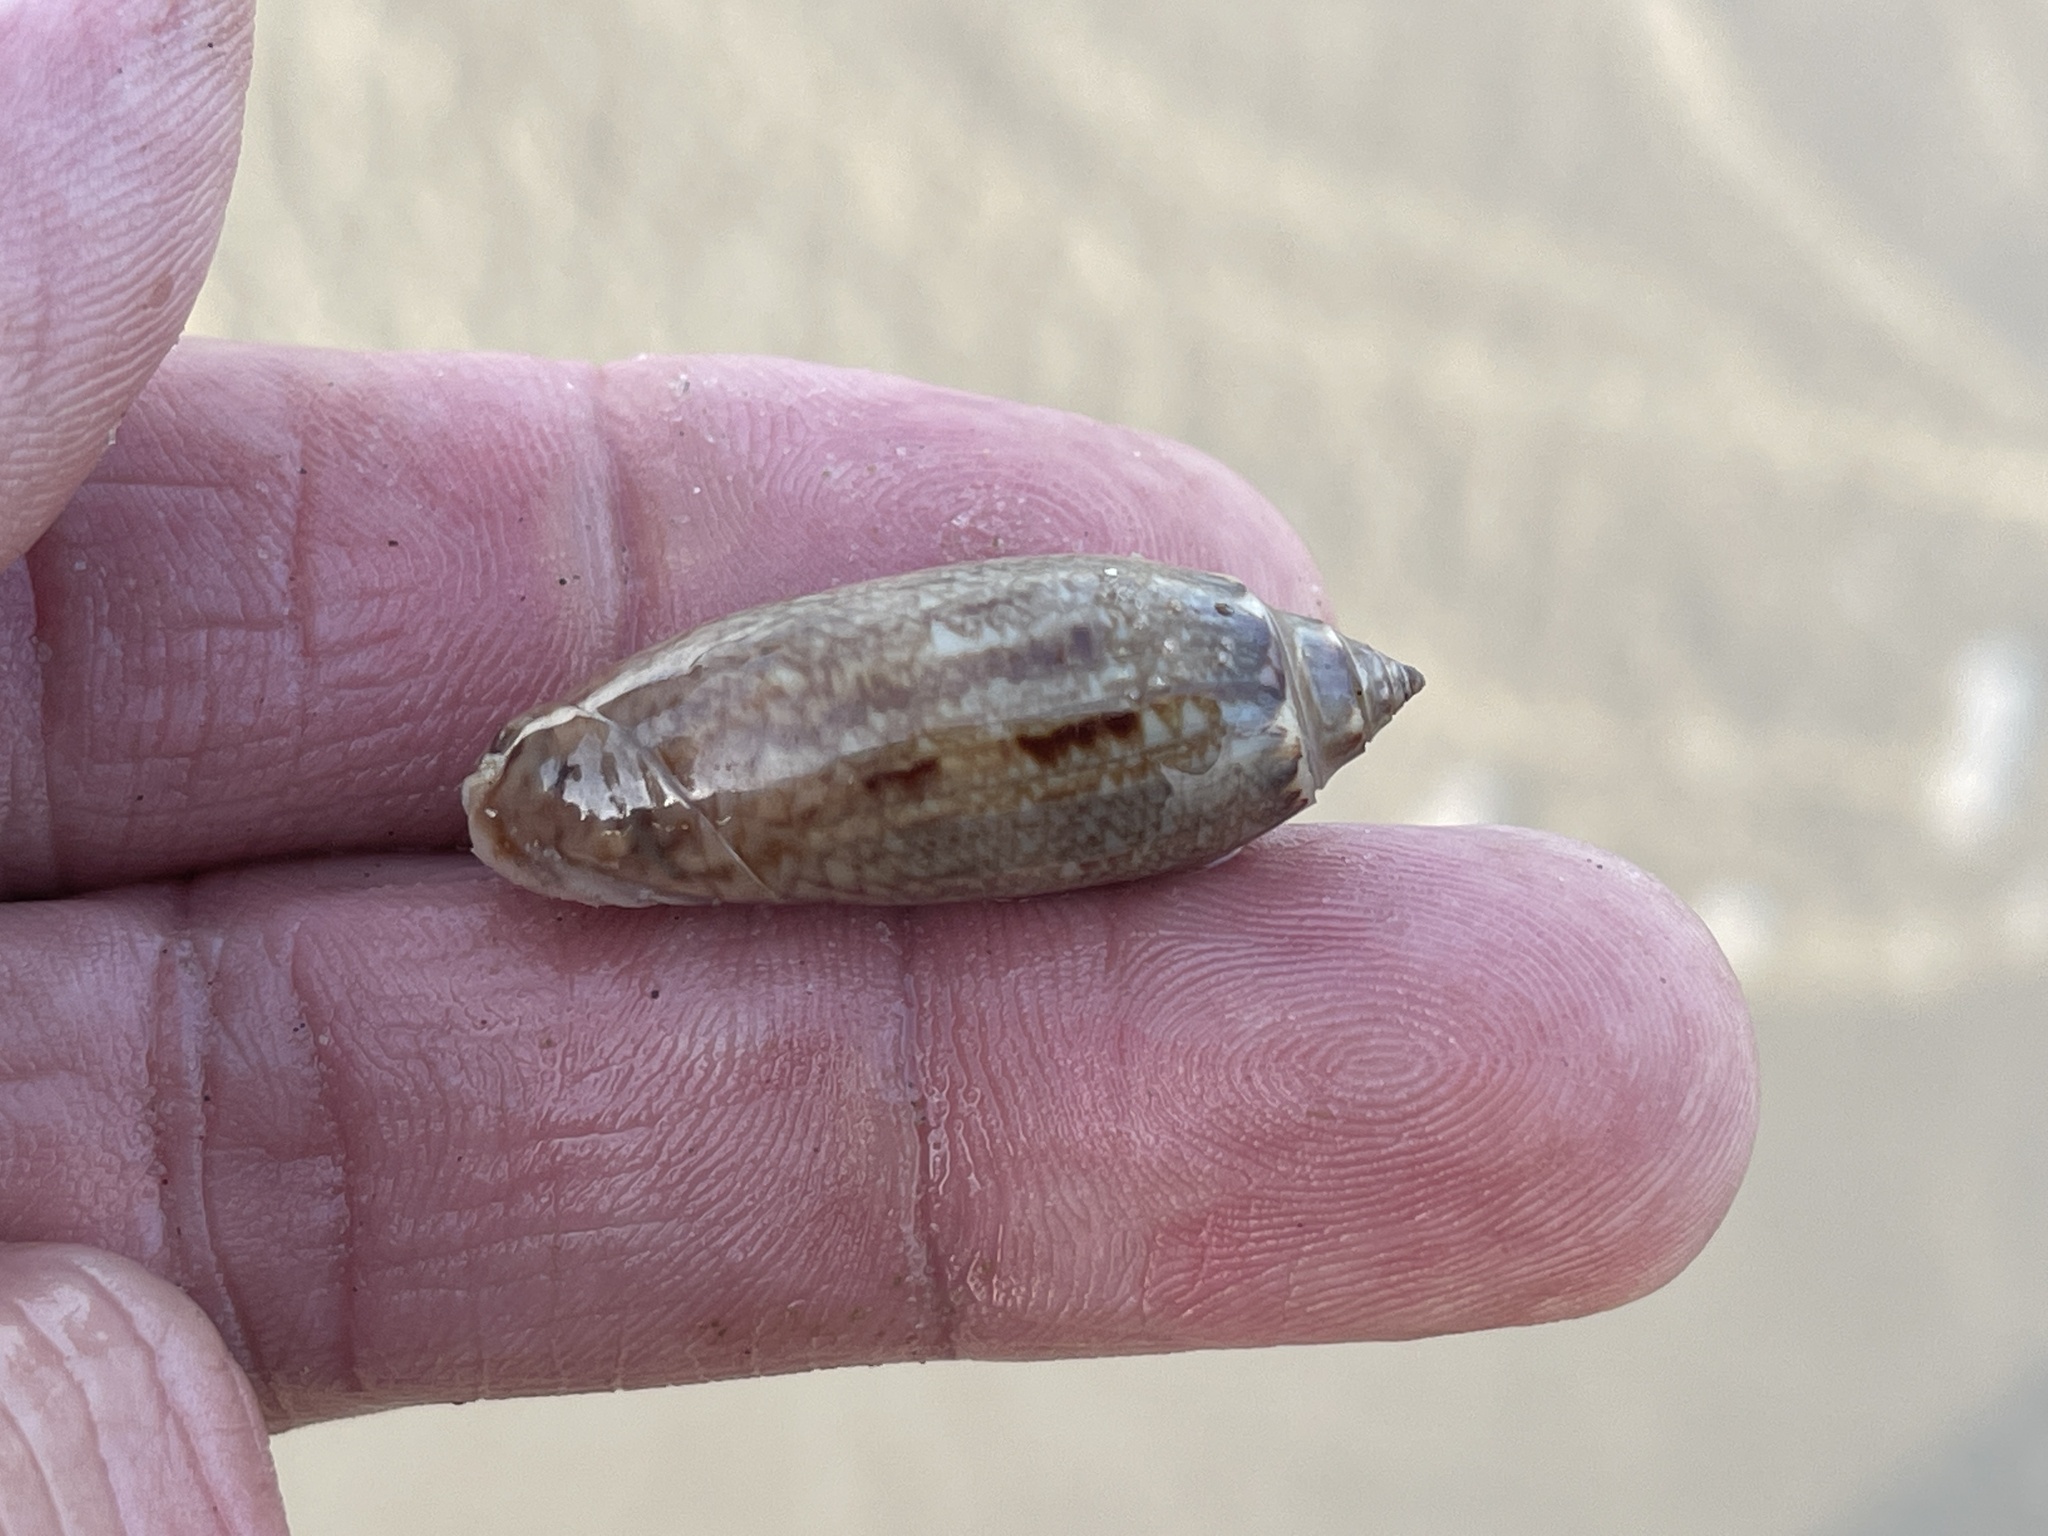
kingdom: Animalia
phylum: Mollusca
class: Gastropoda
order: Neogastropoda
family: Olividae
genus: Oliva
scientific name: Oliva sayana
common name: Lettered olive
